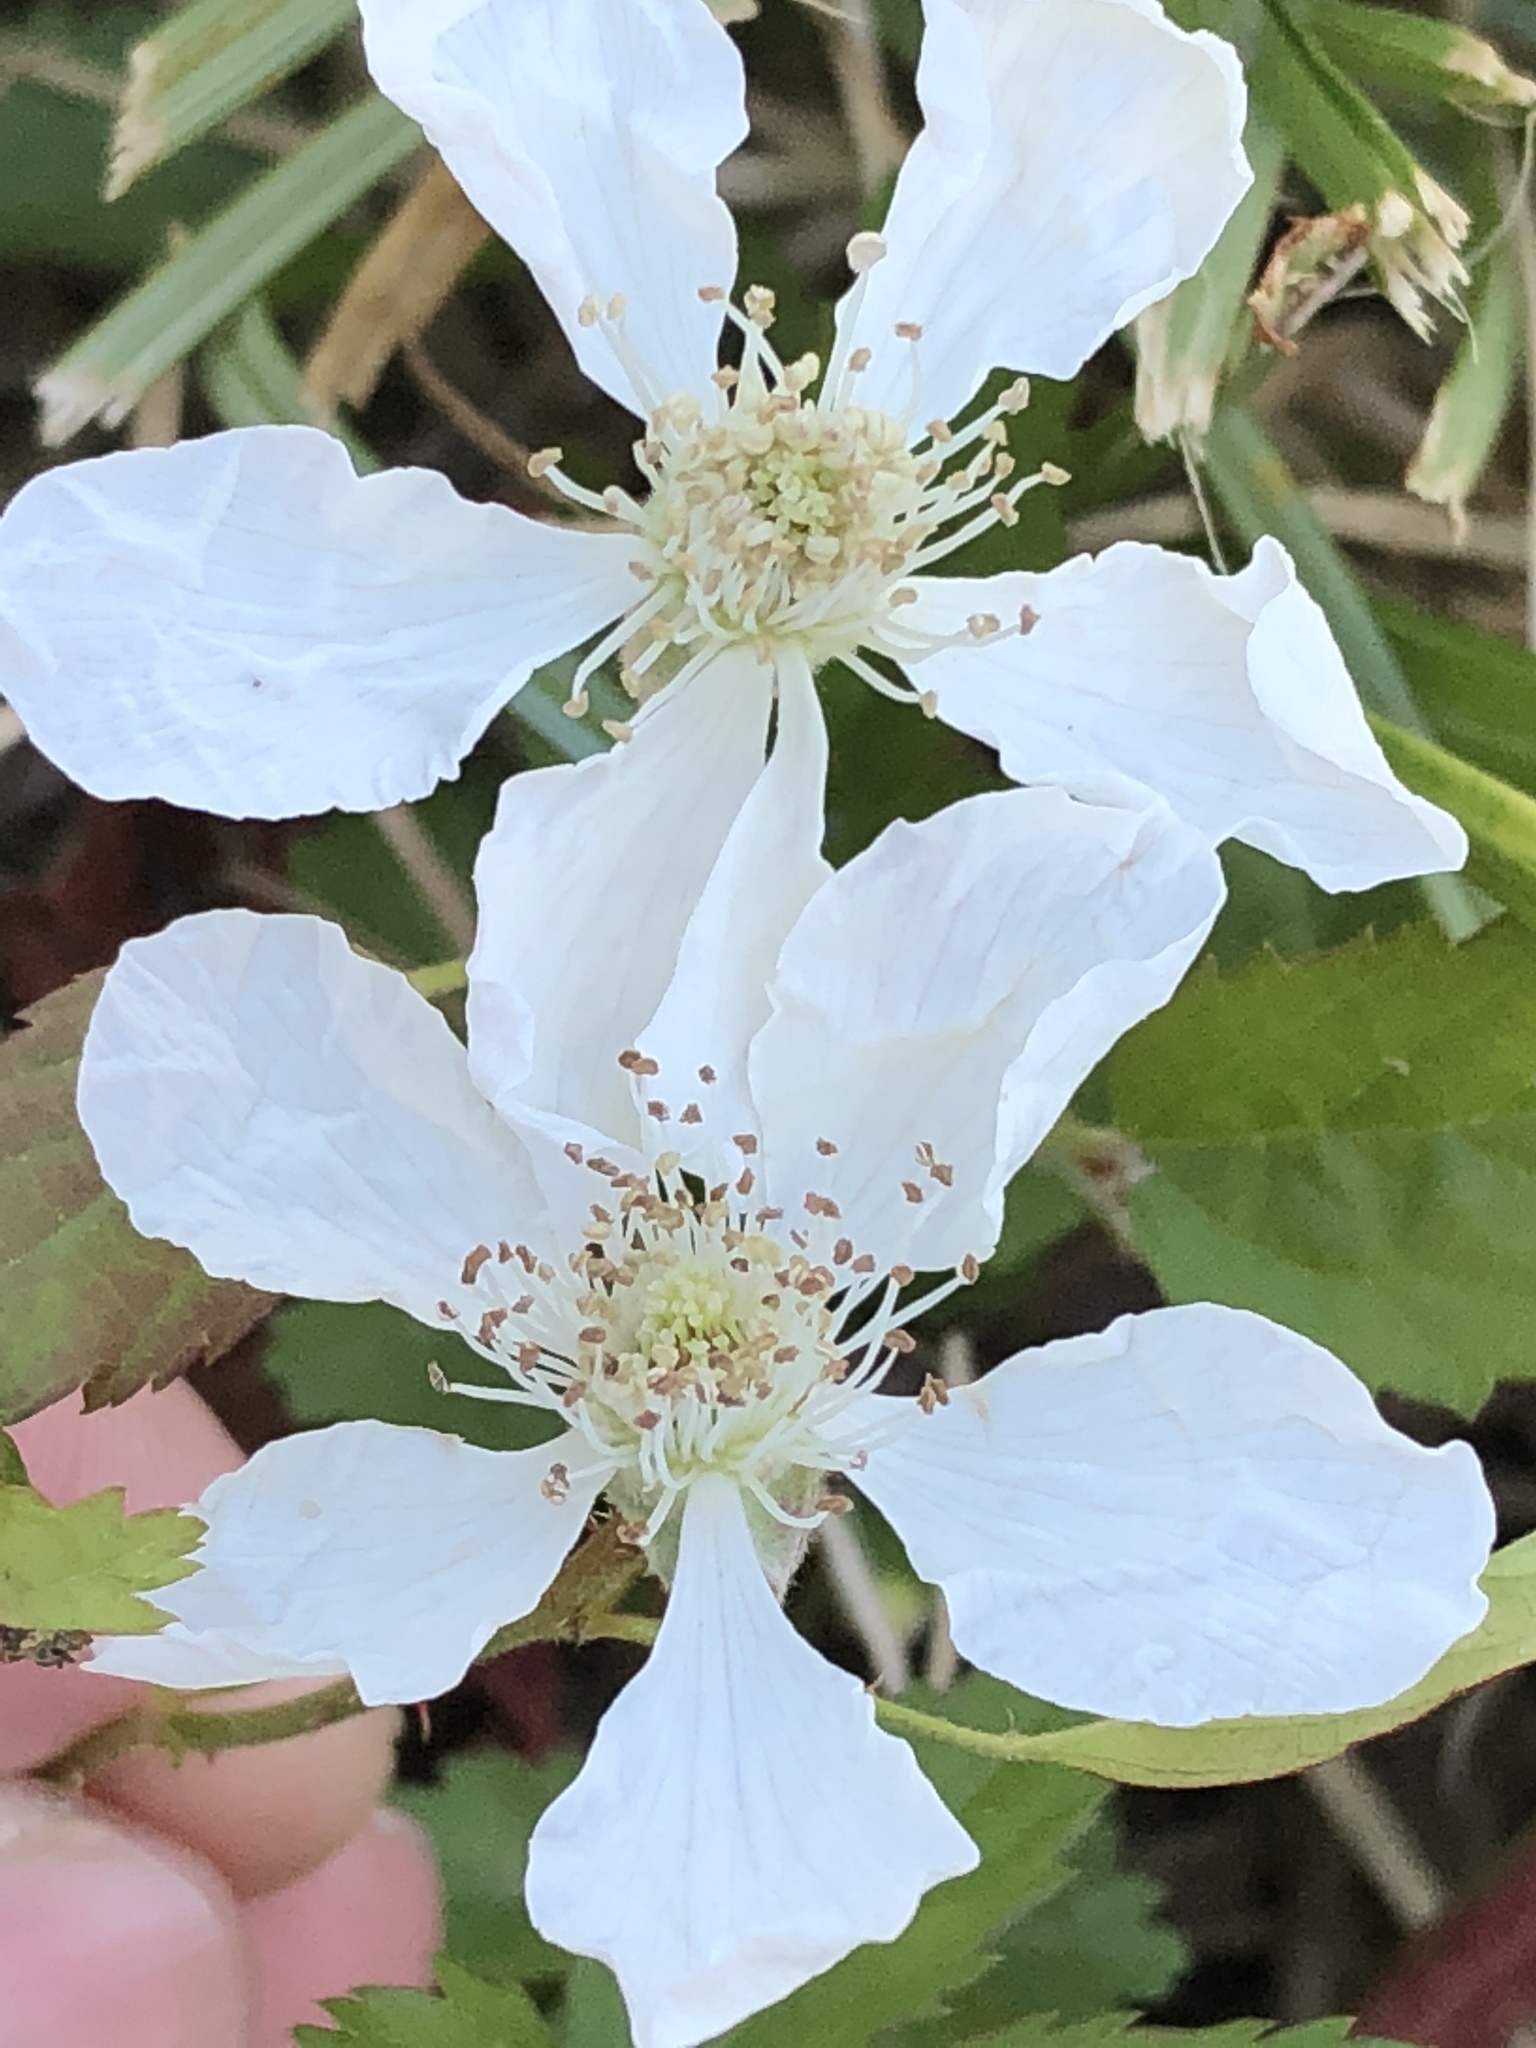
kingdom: Plantae
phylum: Tracheophyta
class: Magnoliopsida
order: Rosales
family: Rosaceae
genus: Rubus
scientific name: Rubus trivialis
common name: Southern dewberry
